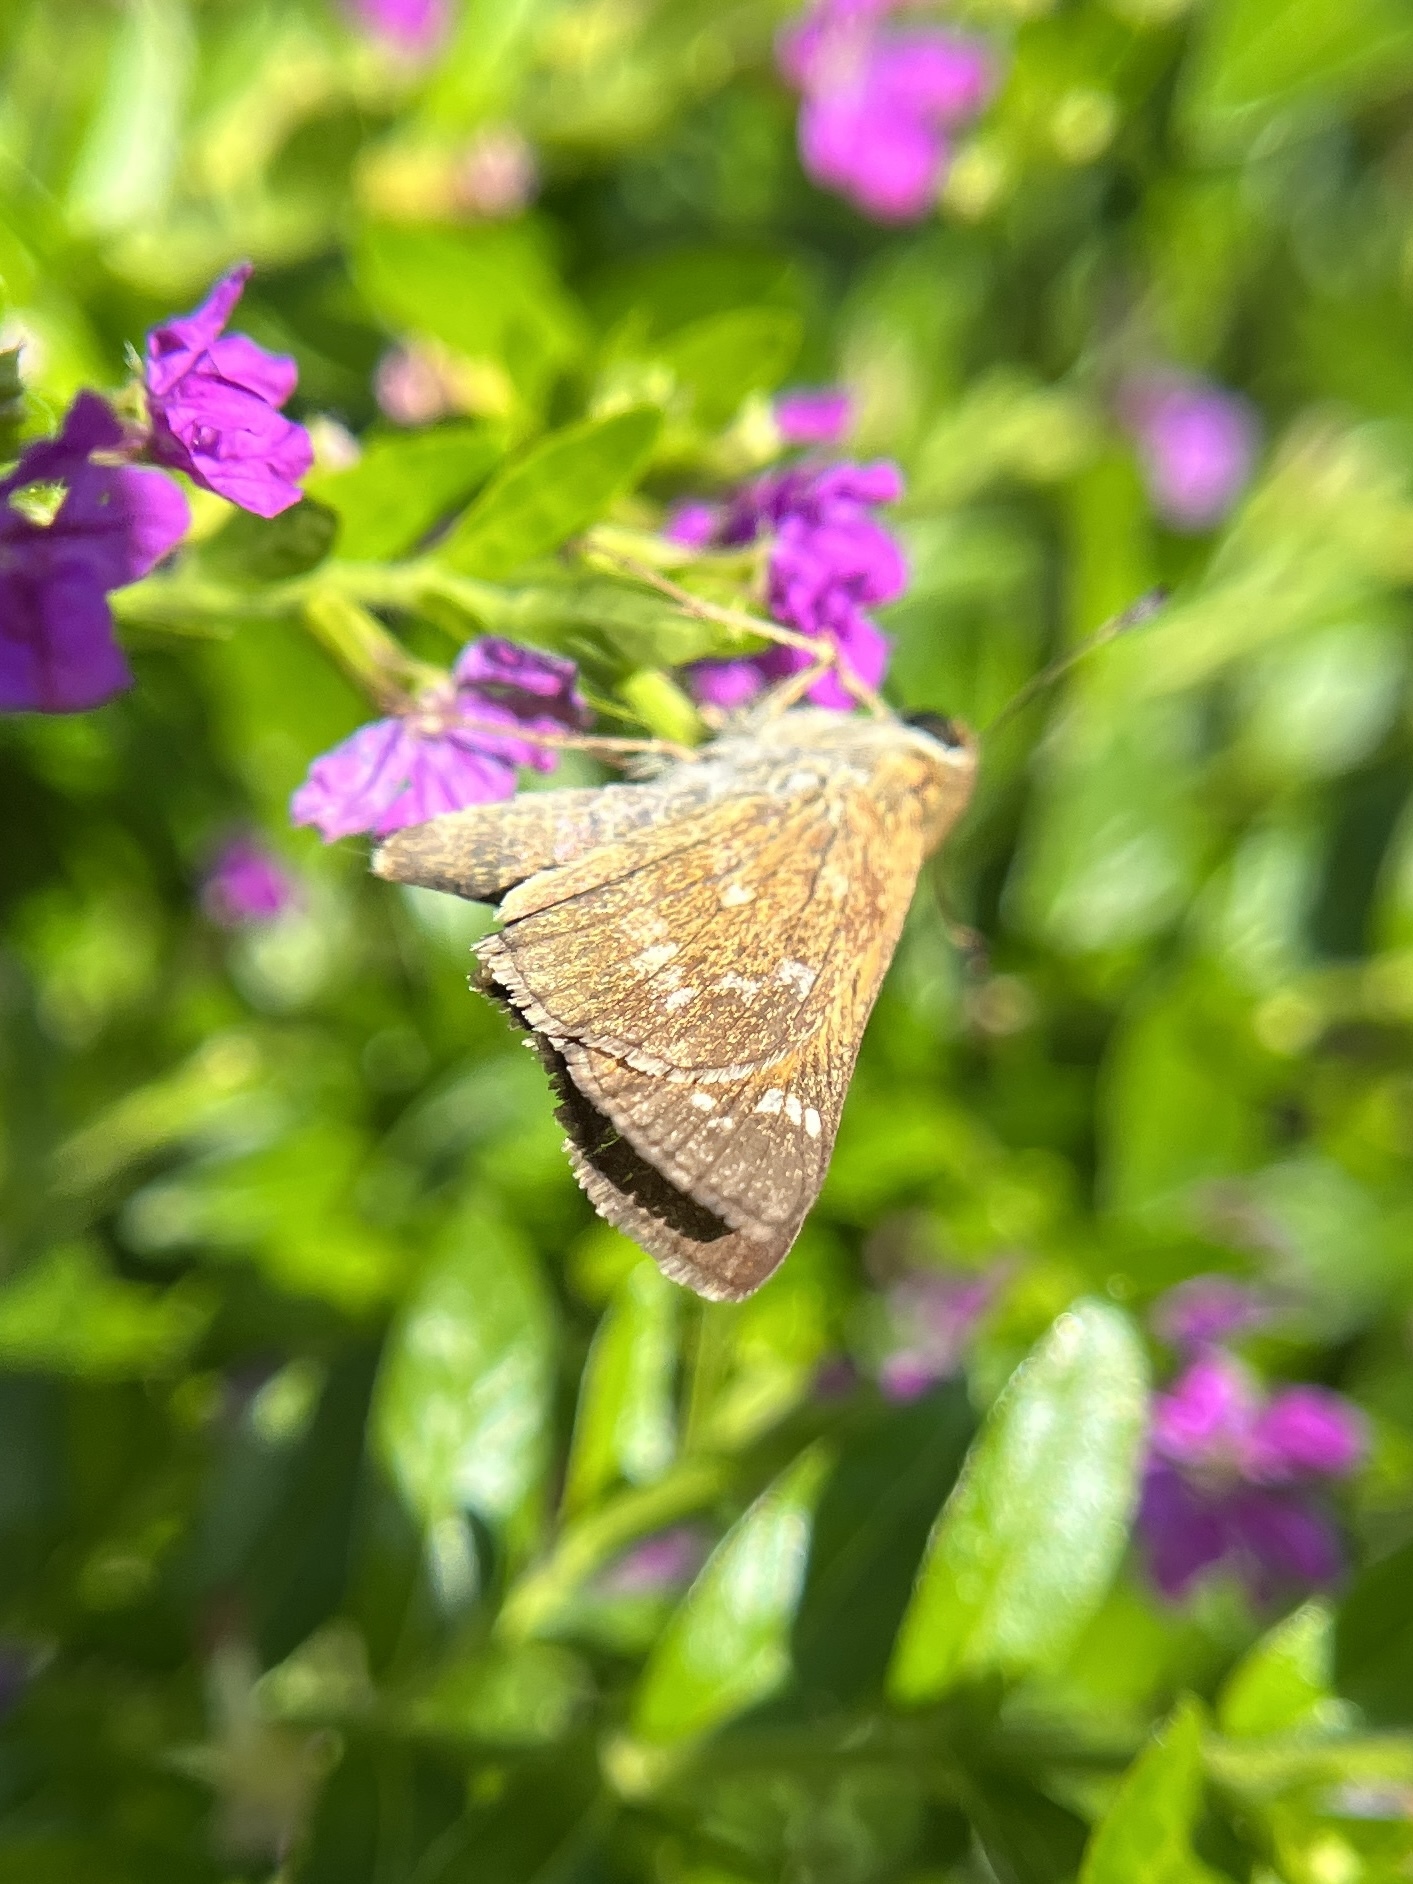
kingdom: Animalia
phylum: Arthropoda
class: Insecta
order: Lepidoptera
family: Hesperiidae
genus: Atalopedes
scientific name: Atalopedes
